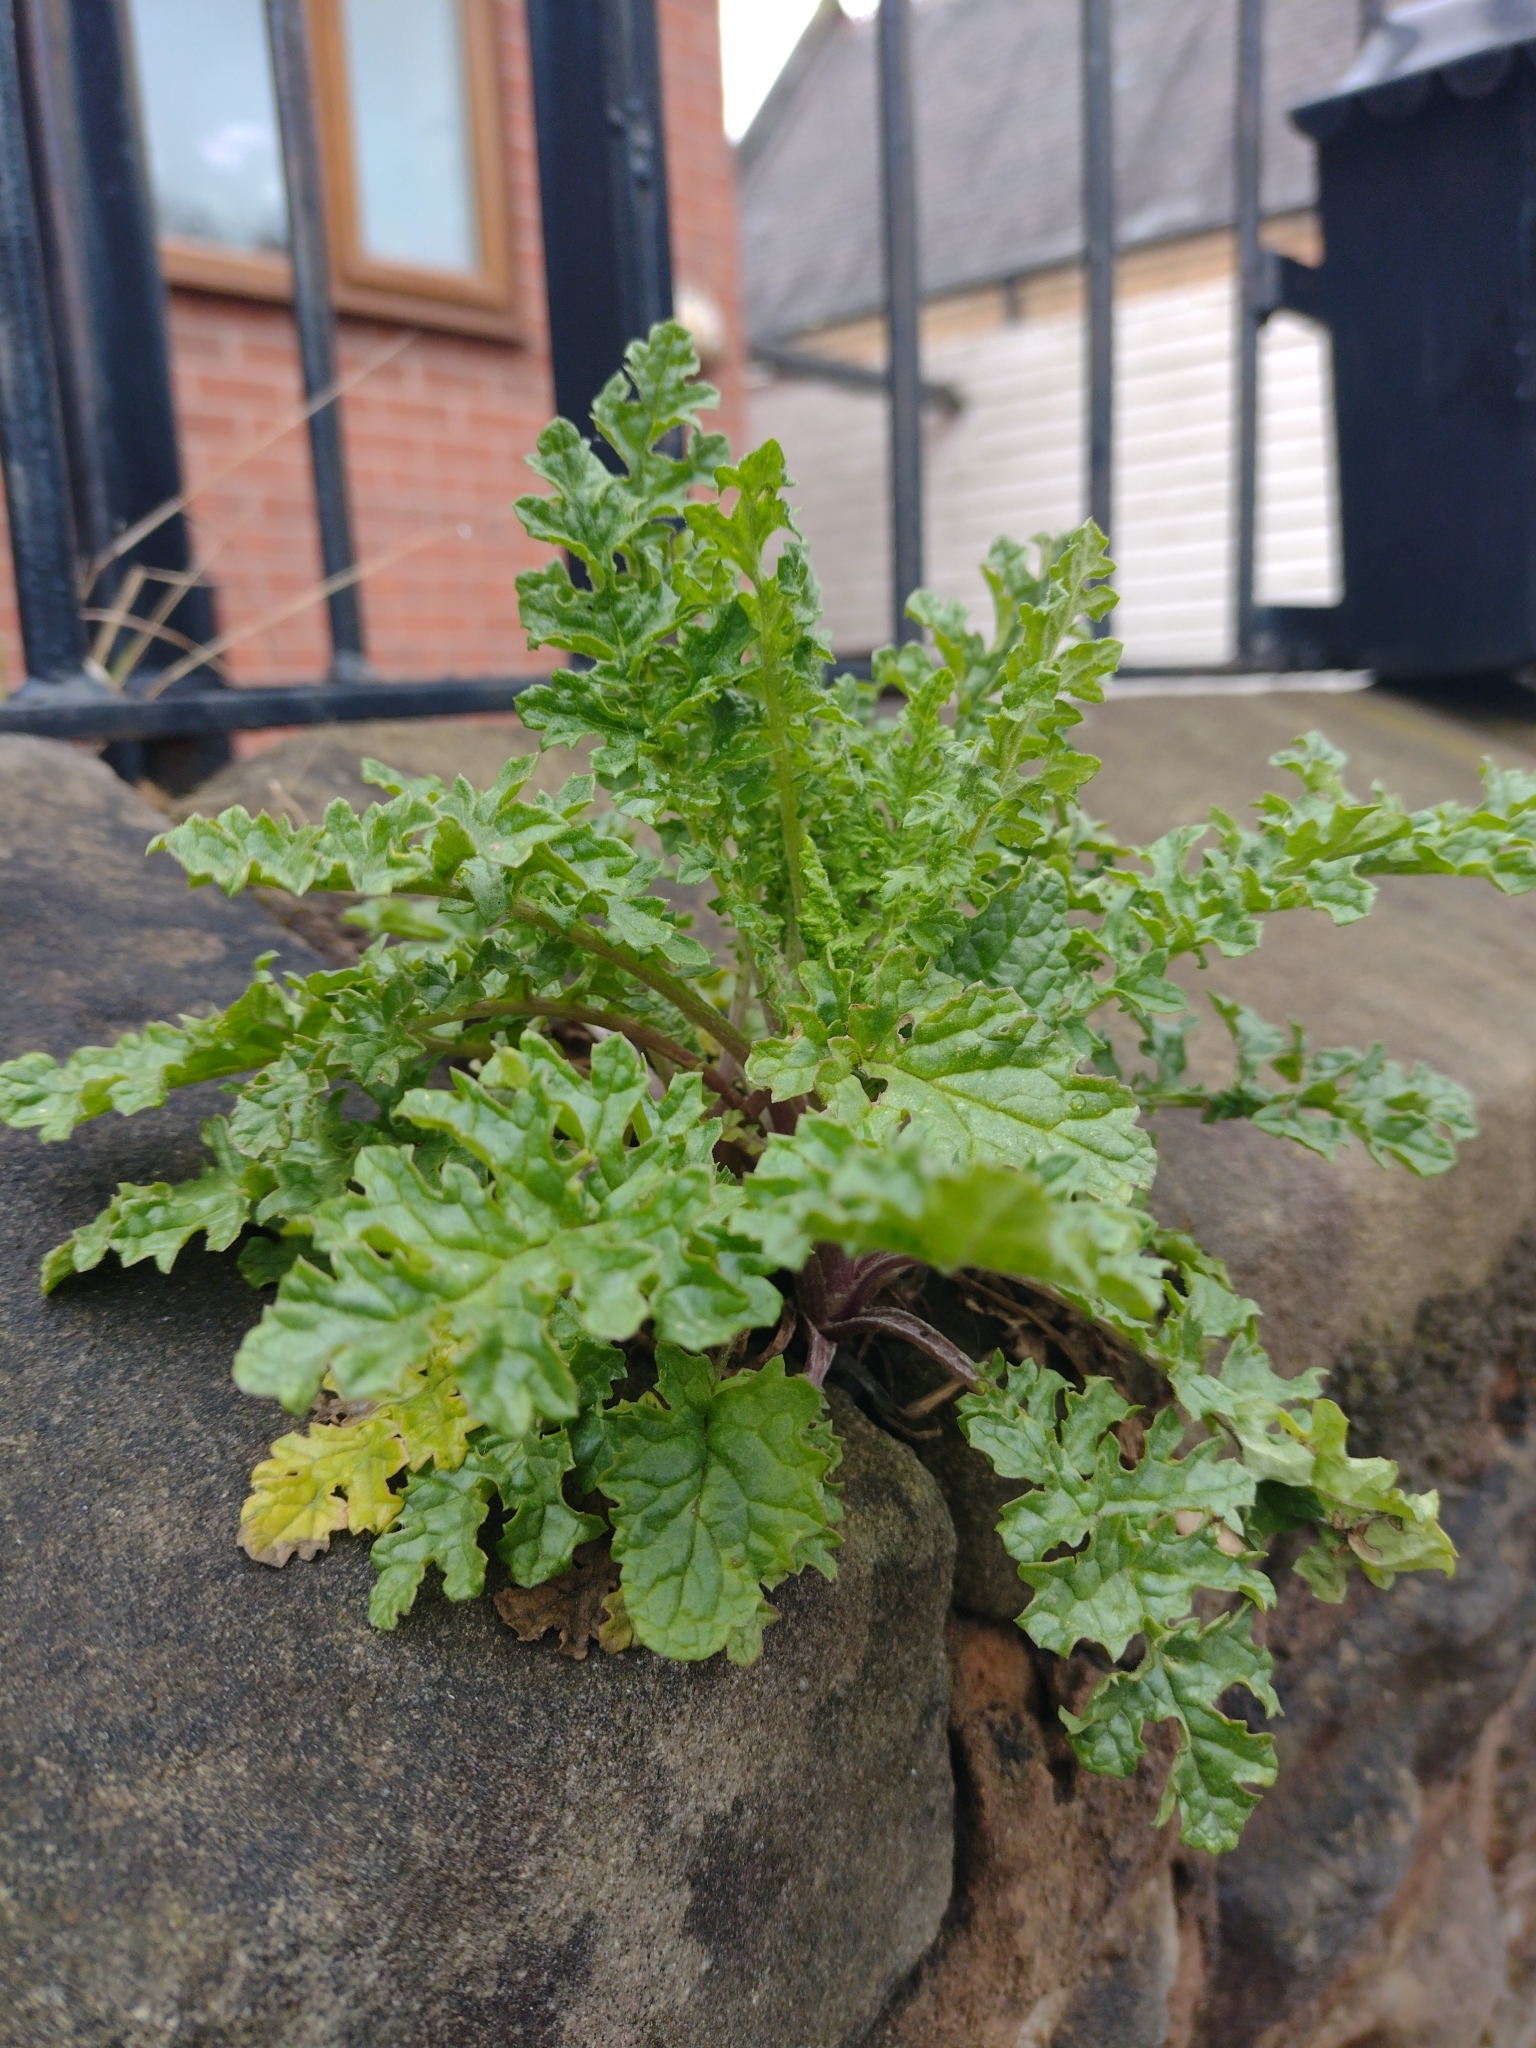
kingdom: Plantae
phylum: Tracheophyta
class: Magnoliopsida
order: Asterales
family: Asteraceae
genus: Jacobaea
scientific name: Jacobaea vulgaris
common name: Stinking willie
